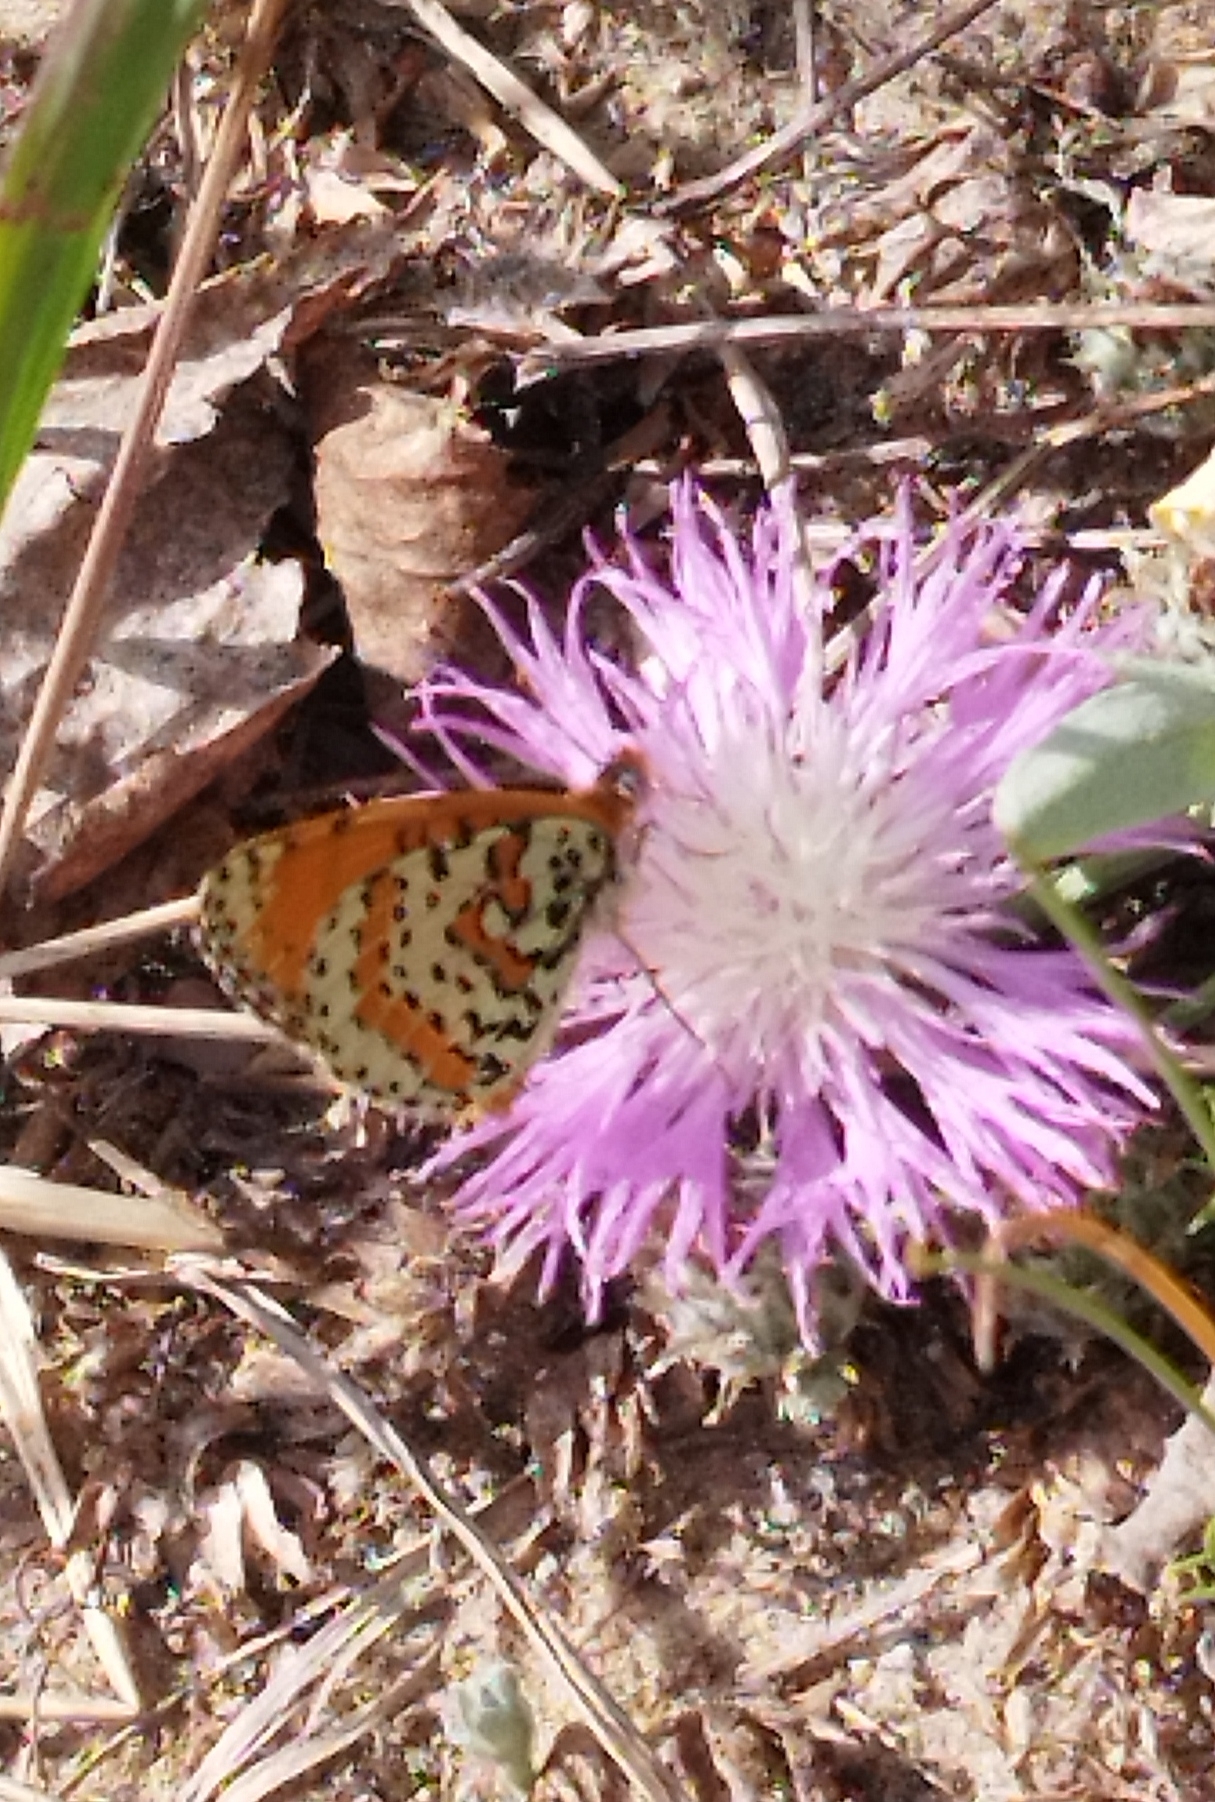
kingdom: Animalia
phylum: Arthropoda
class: Insecta
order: Lepidoptera
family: Nymphalidae
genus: Melitaea
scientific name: Melitaea didyma
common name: Spotted fritillary
